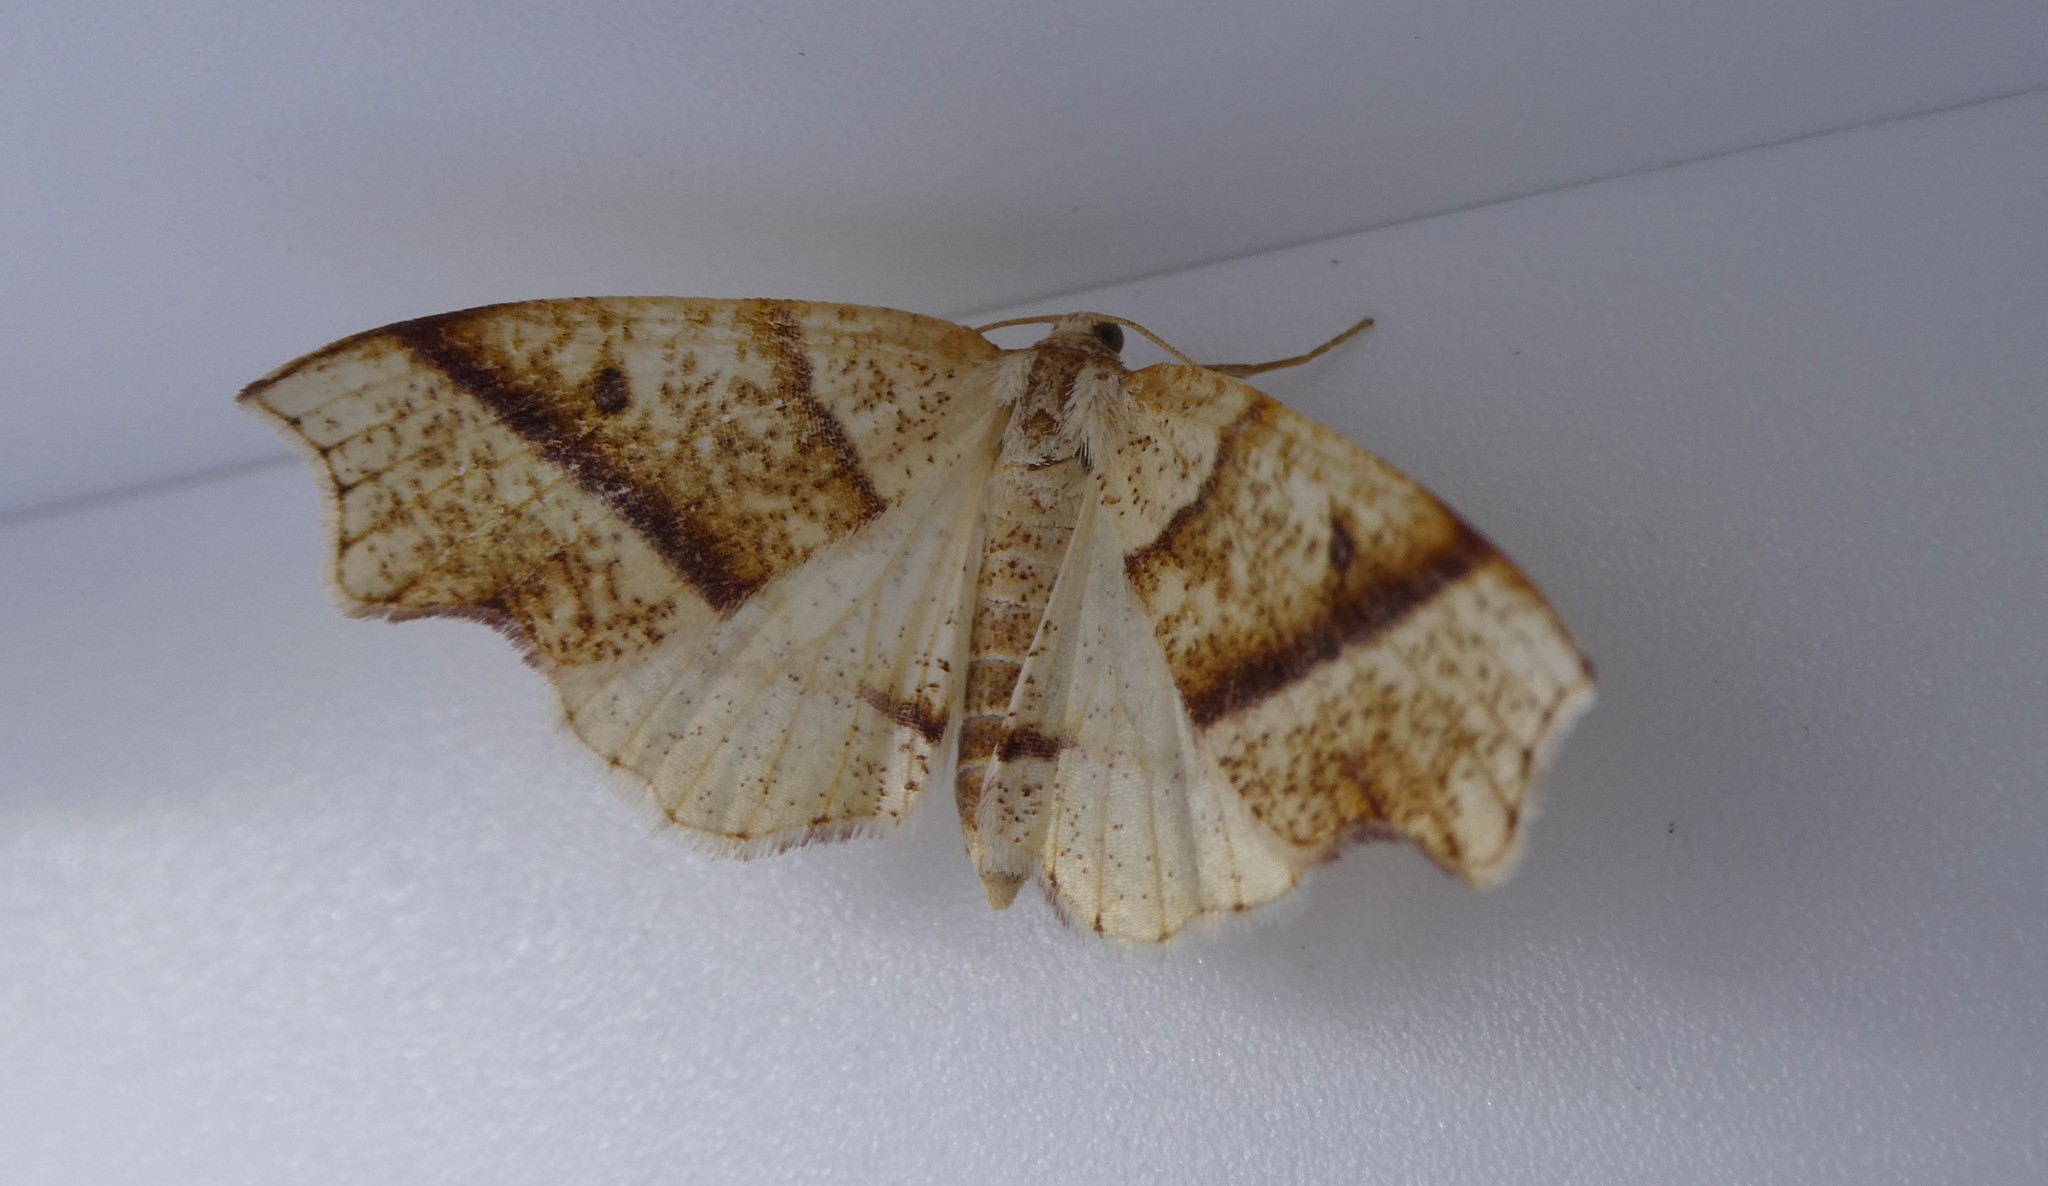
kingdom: Animalia
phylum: Arthropoda
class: Insecta
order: Lepidoptera
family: Geometridae
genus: Plagodis
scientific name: Plagodis alcoolaria
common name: Hollow-spotted plagodis
